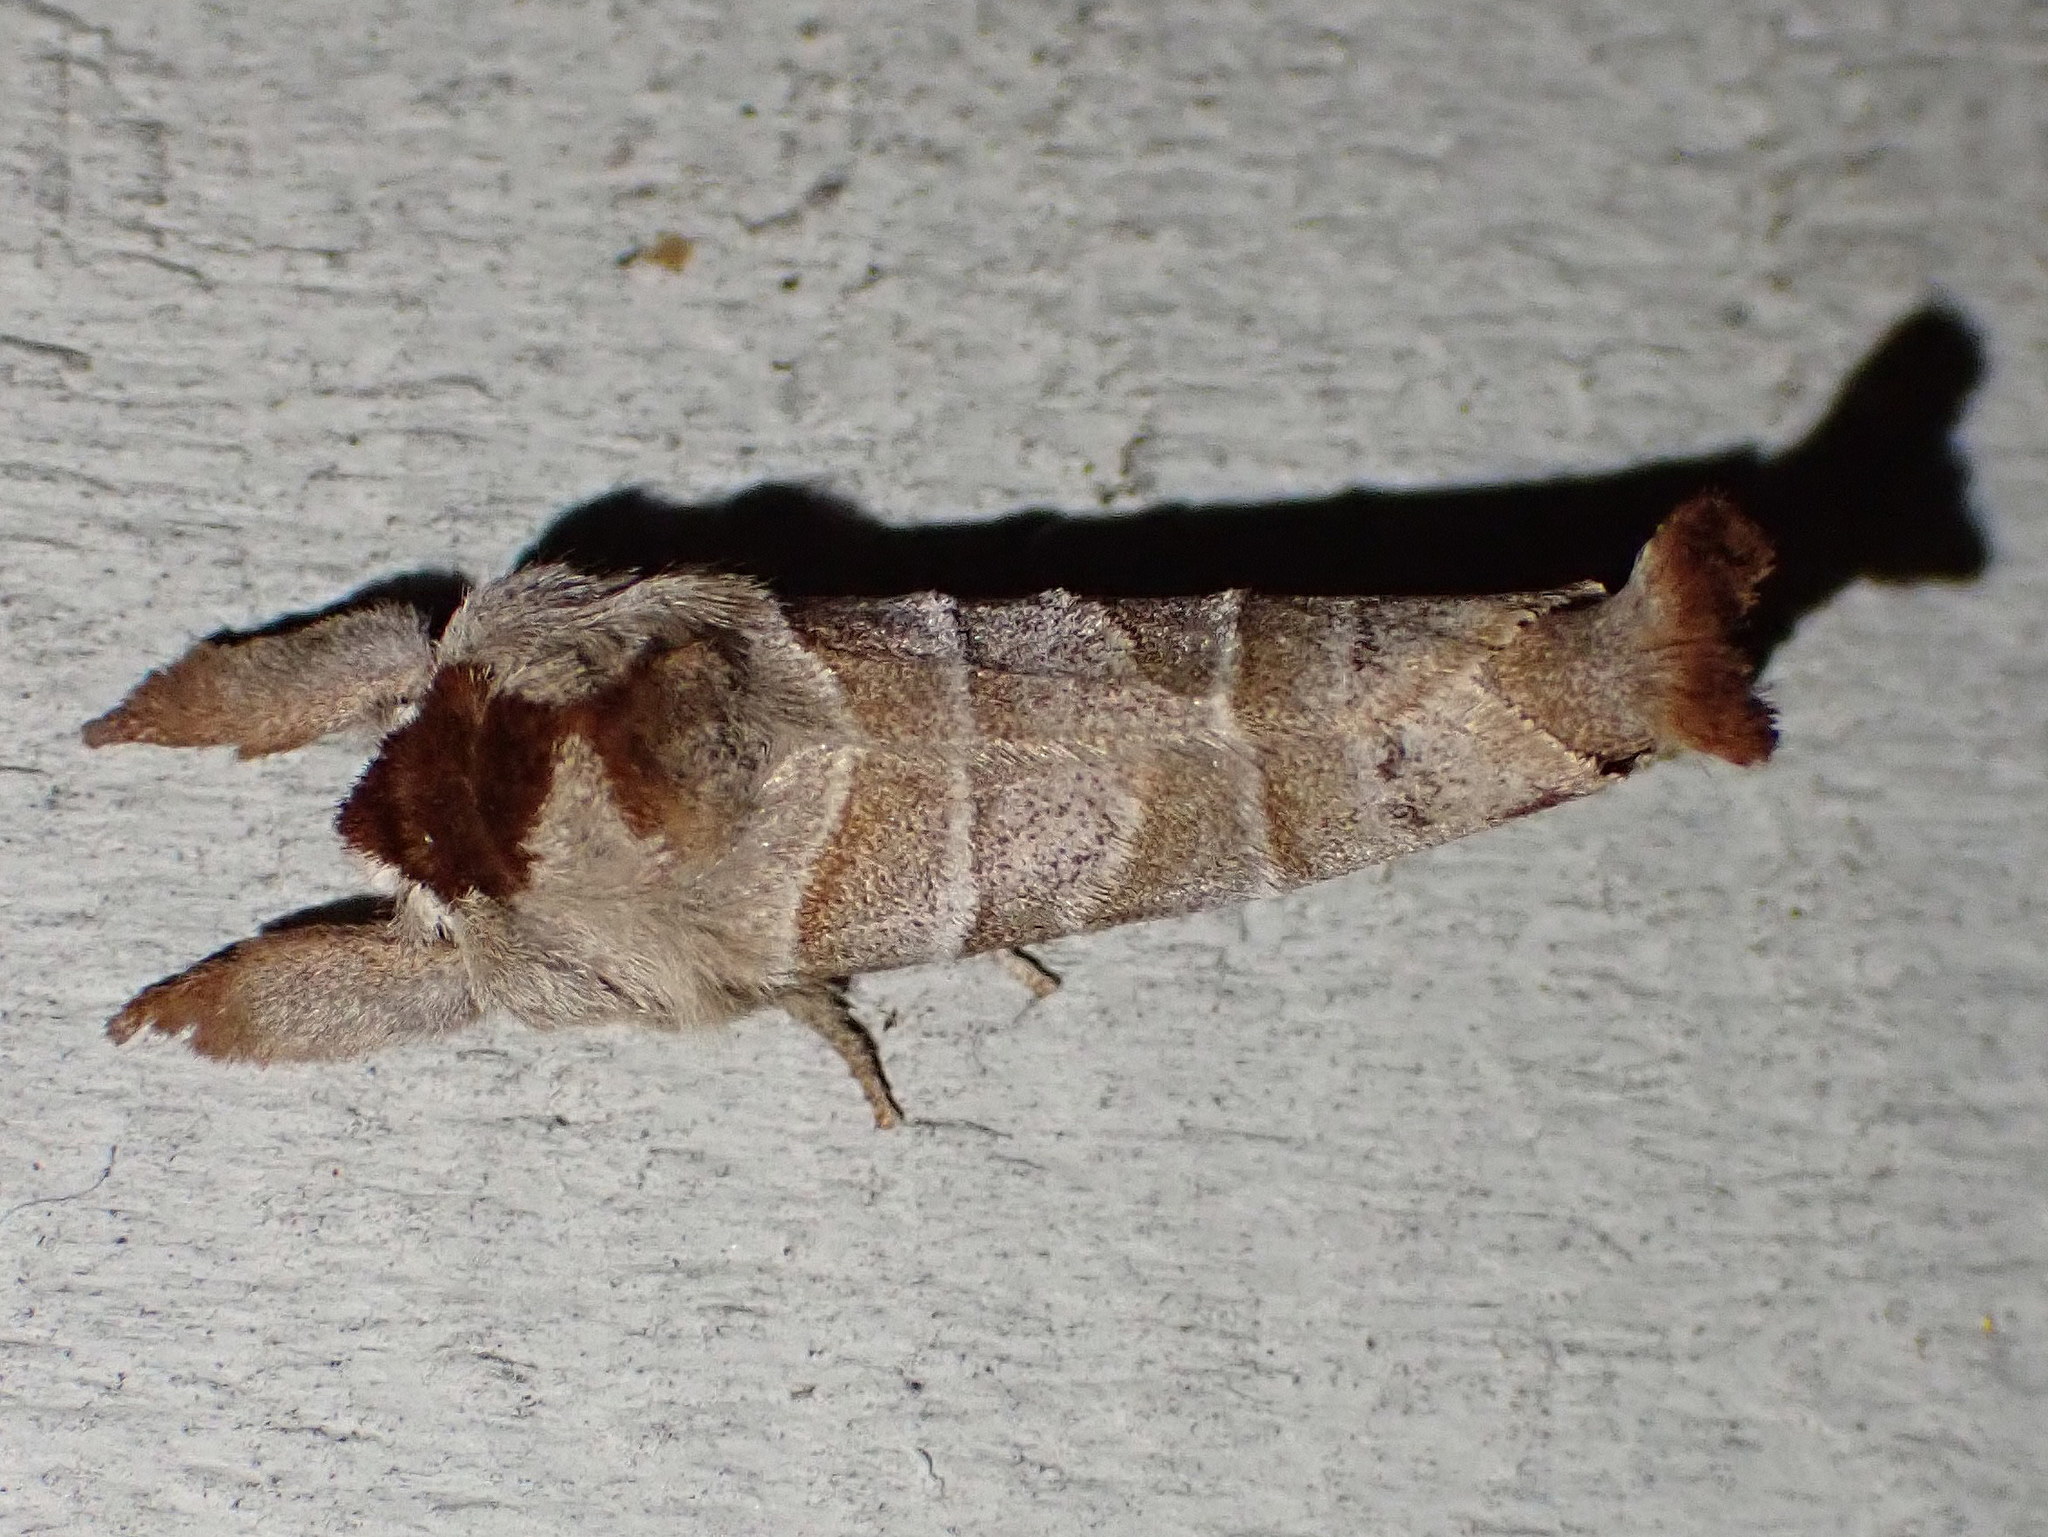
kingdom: Animalia
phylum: Arthropoda
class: Insecta
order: Lepidoptera
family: Notodontidae
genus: Clostera
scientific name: Clostera albosigma
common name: Sigmoid prominent
